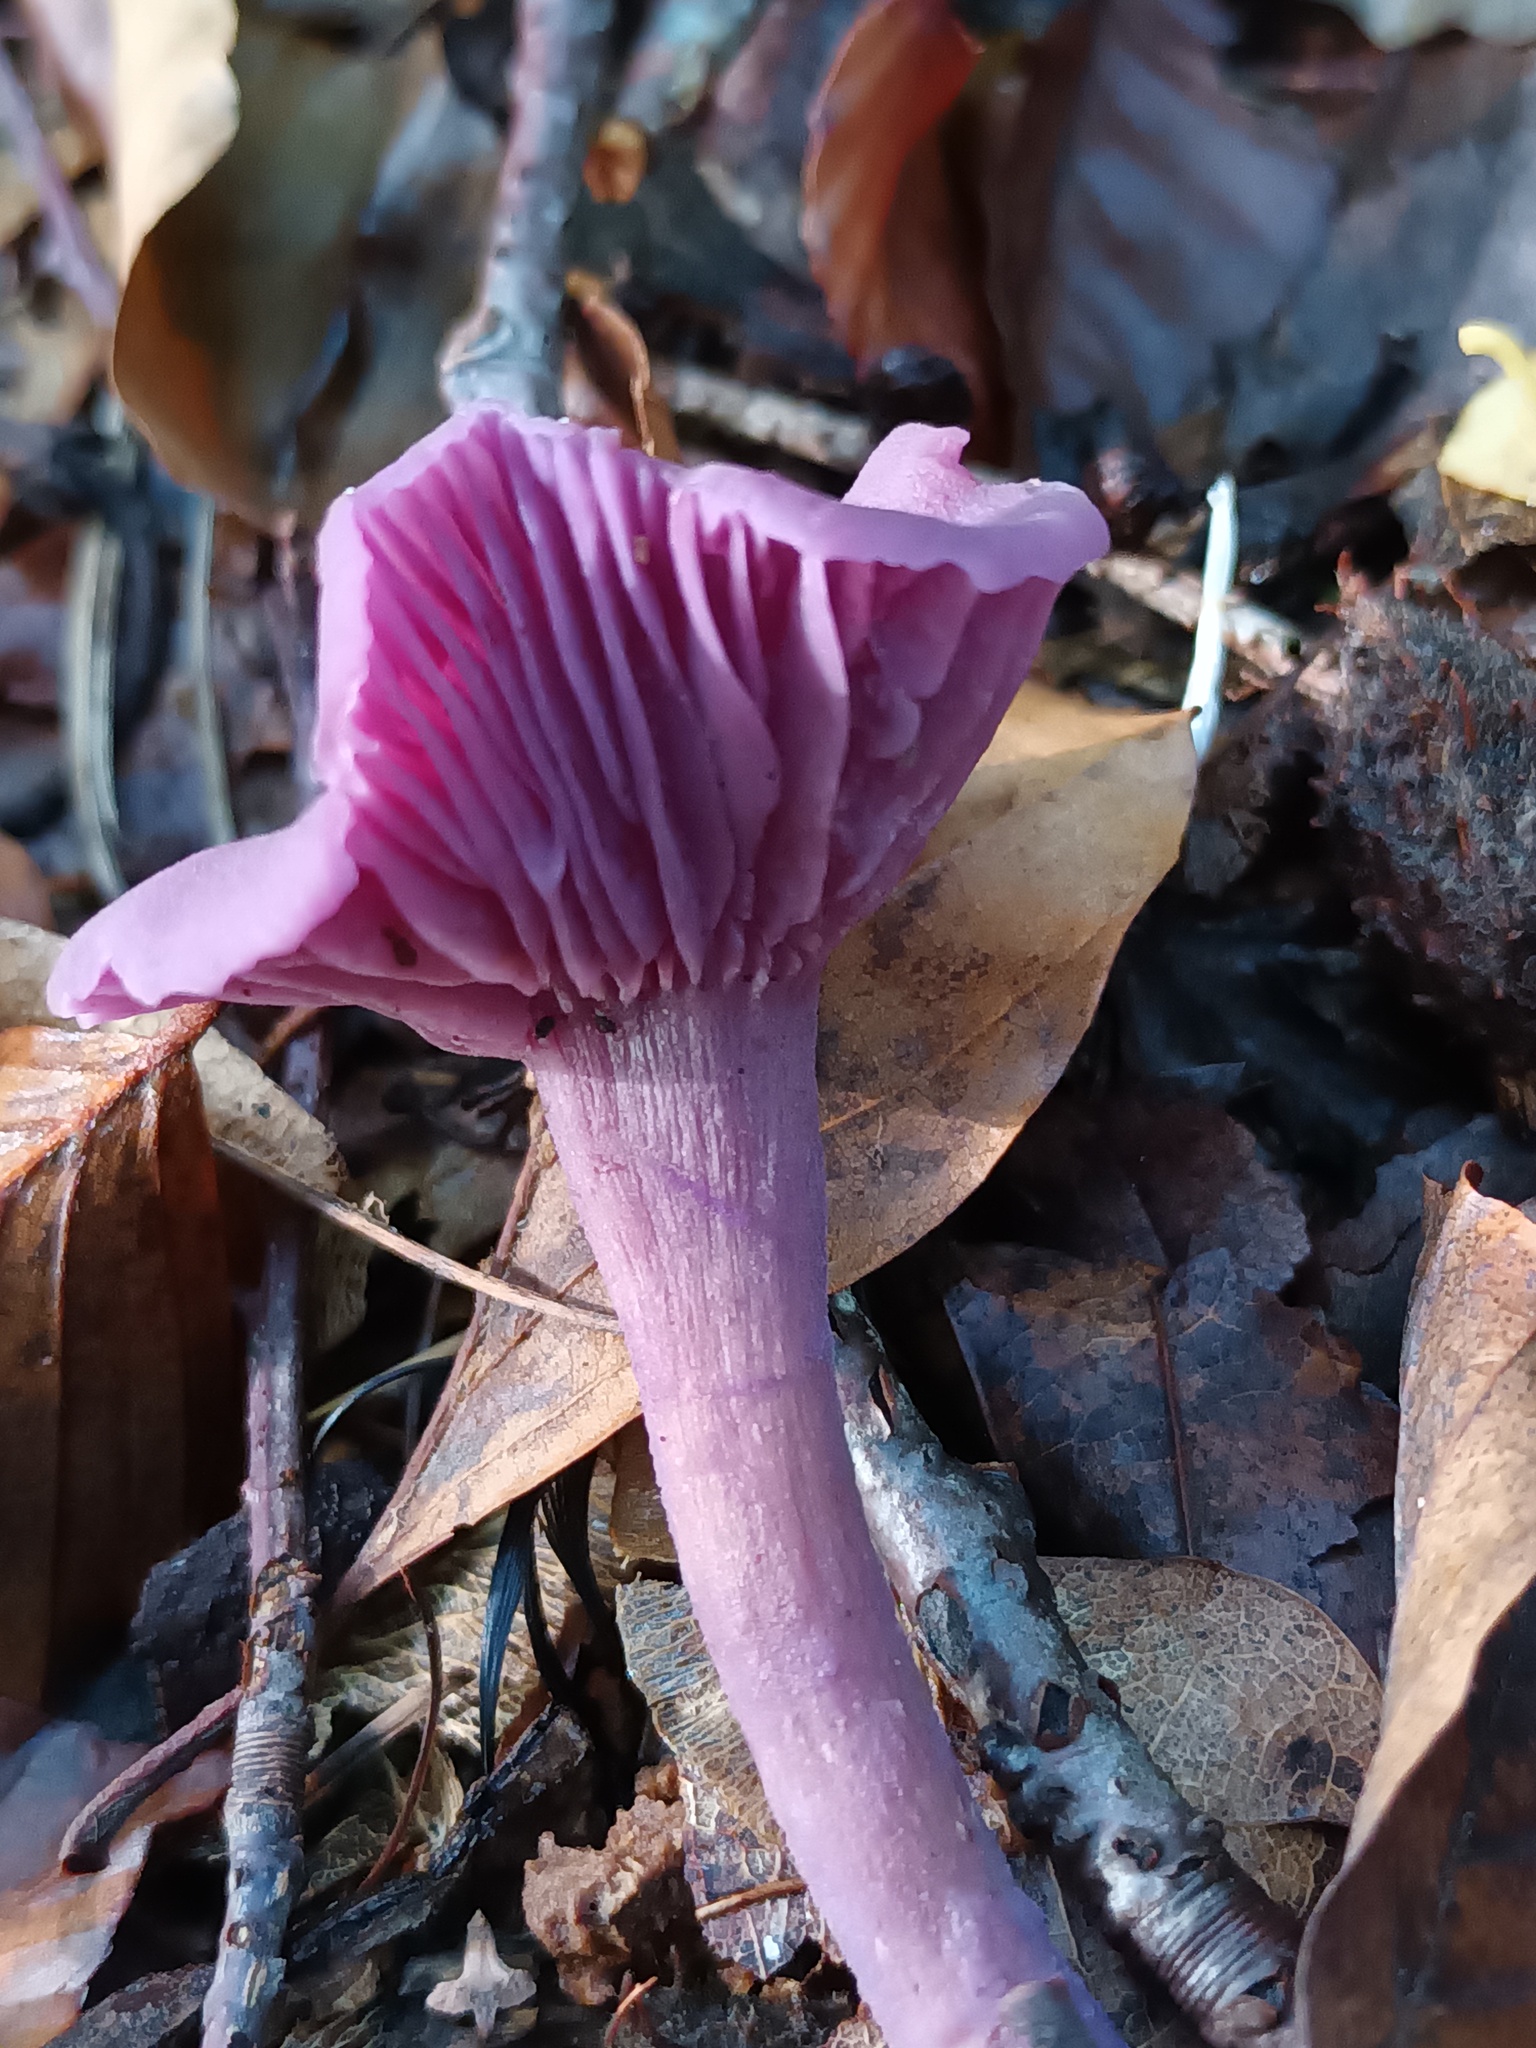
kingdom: Fungi
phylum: Basidiomycota
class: Agaricomycetes
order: Agaricales
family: Hydnangiaceae
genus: Laccaria
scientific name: Laccaria amethystina
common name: Amethyst deceiver
